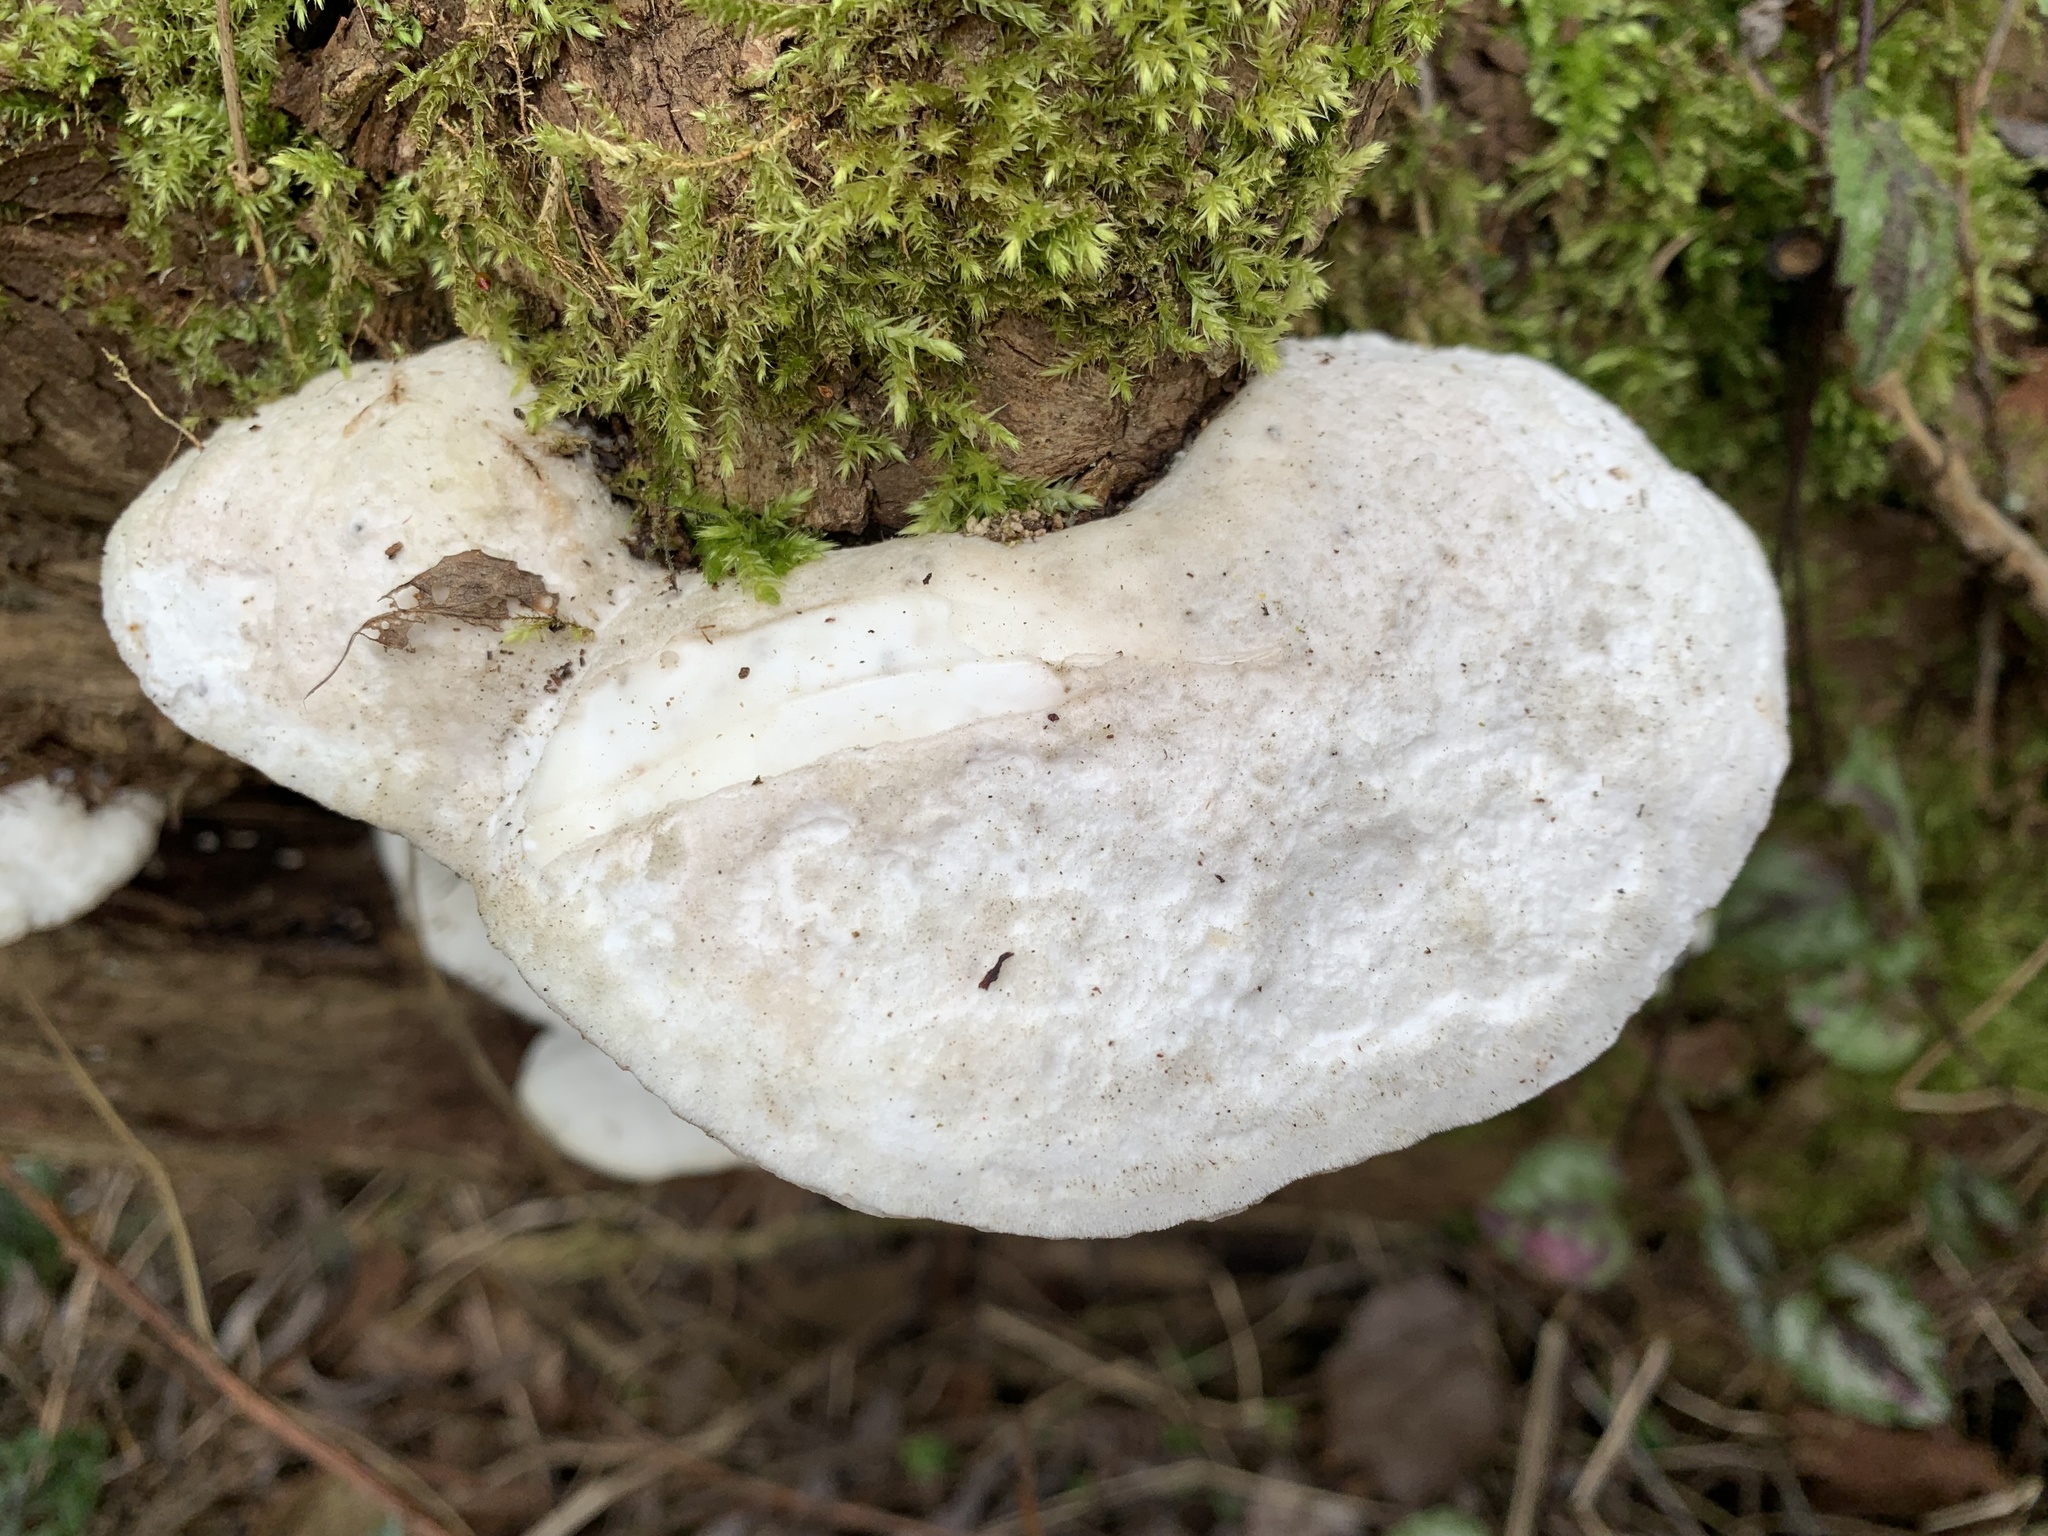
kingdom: Fungi
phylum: Basidiomycota
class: Agaricomycetes
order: Polyporales
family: Polyporaceae
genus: Trametes
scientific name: Trametes suaveolens
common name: Fragrant bracket
